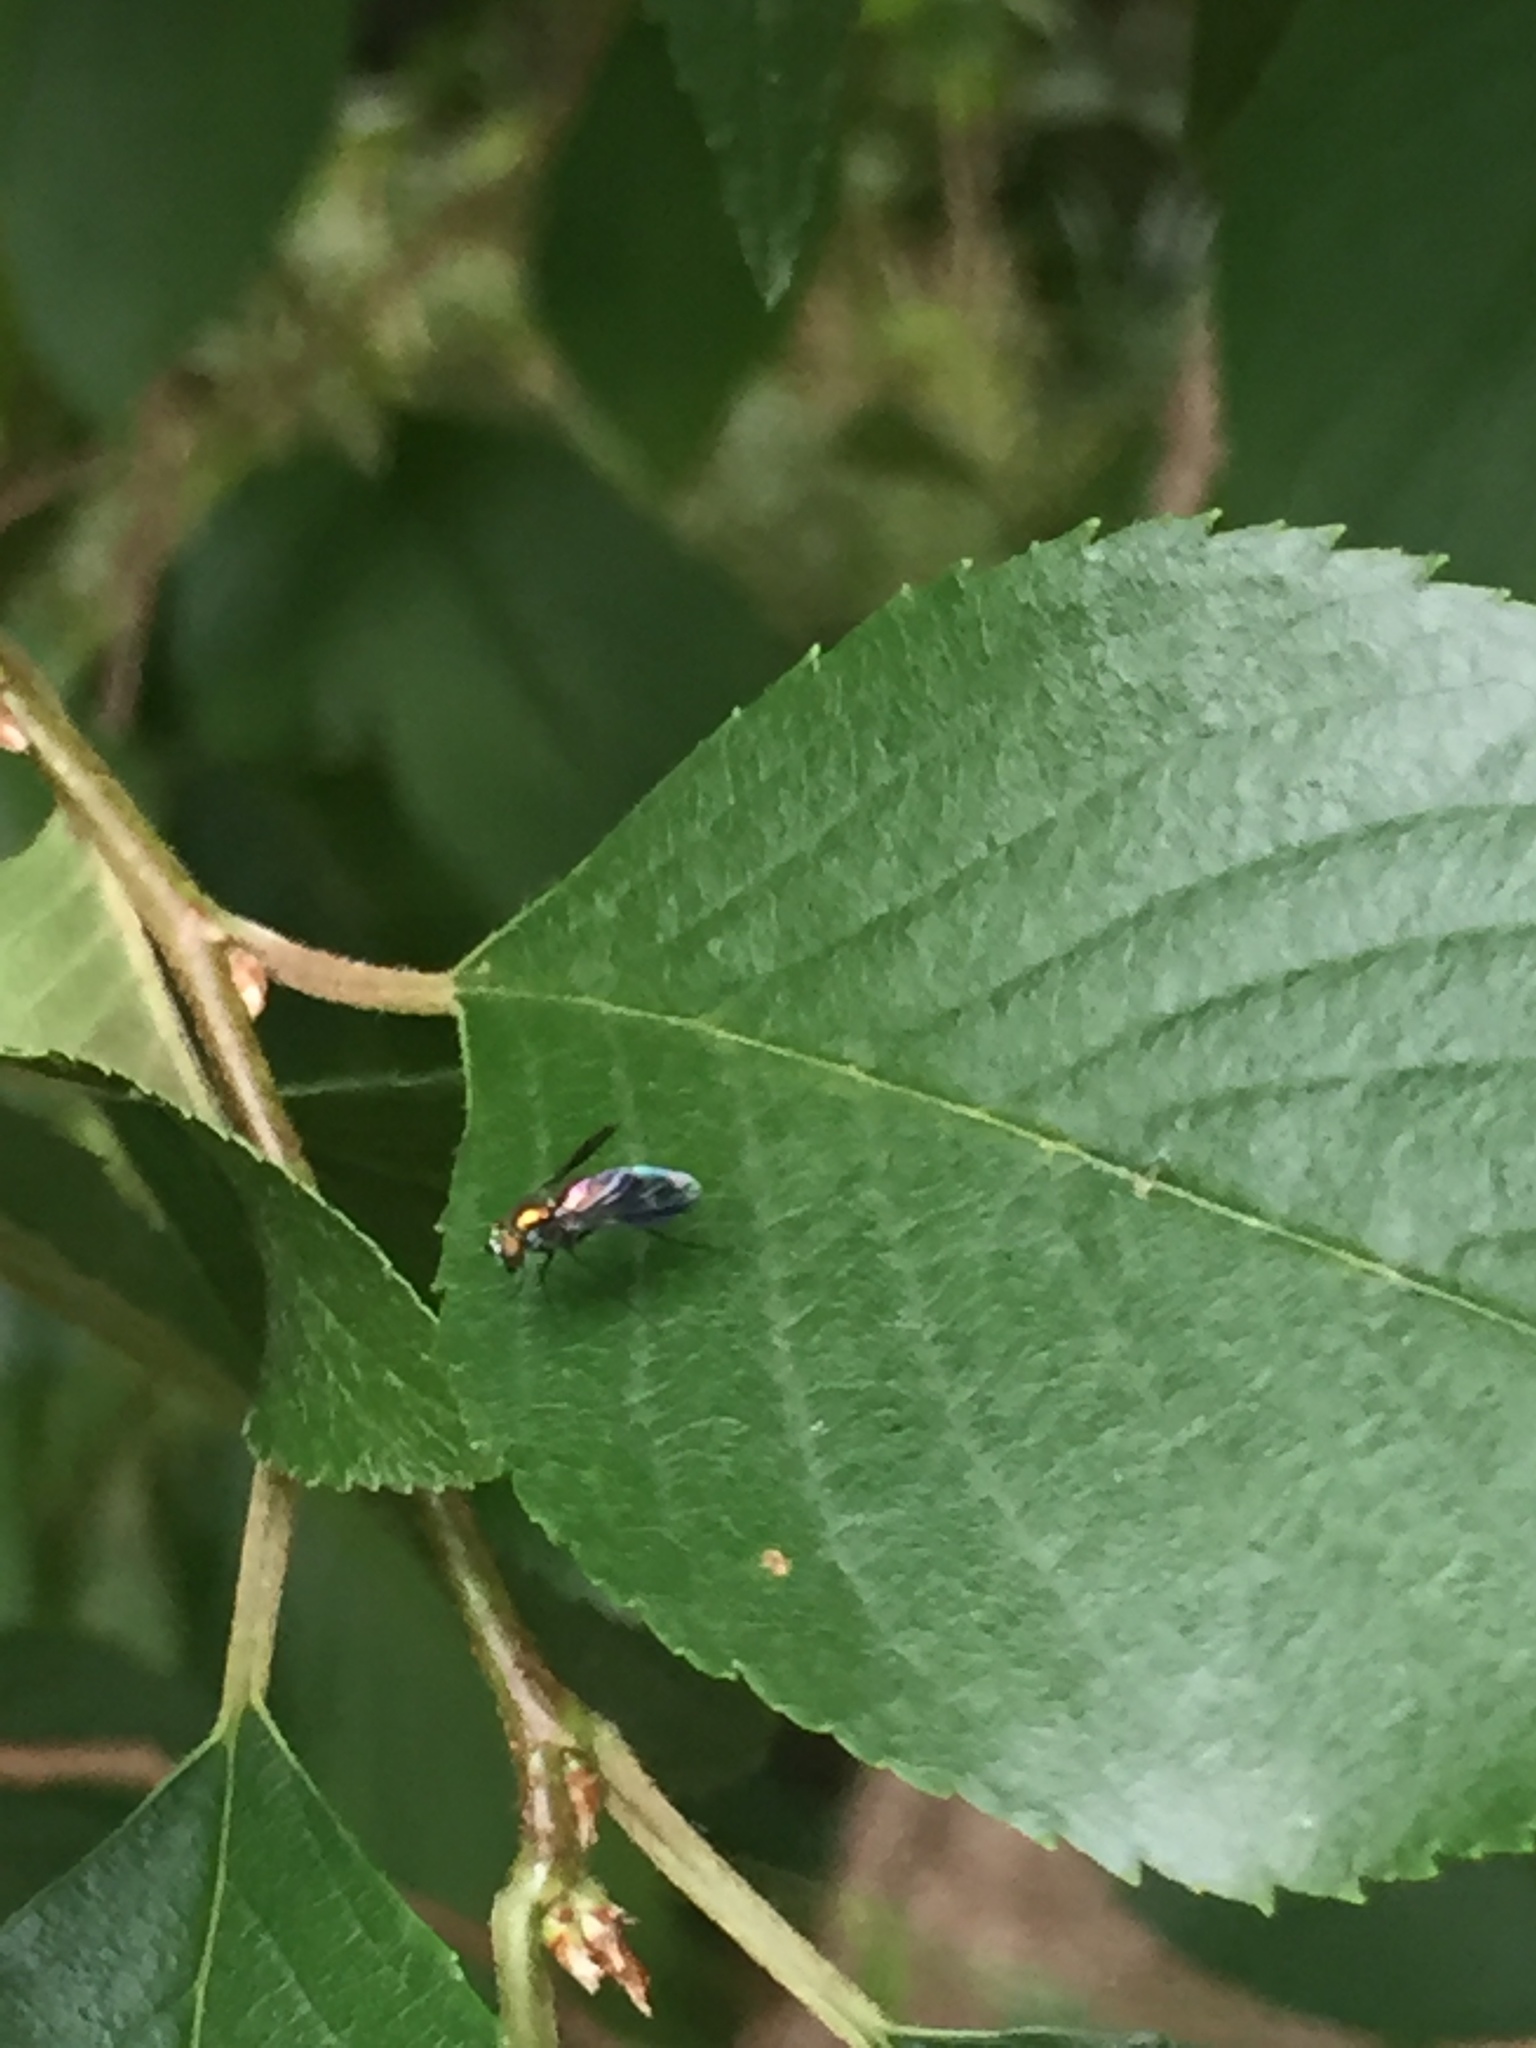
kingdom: Animalia
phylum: Arthropoda
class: Insecta
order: Diptera
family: Dolichopodidae
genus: Condylostylus
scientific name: Condylostylus patibulatus
